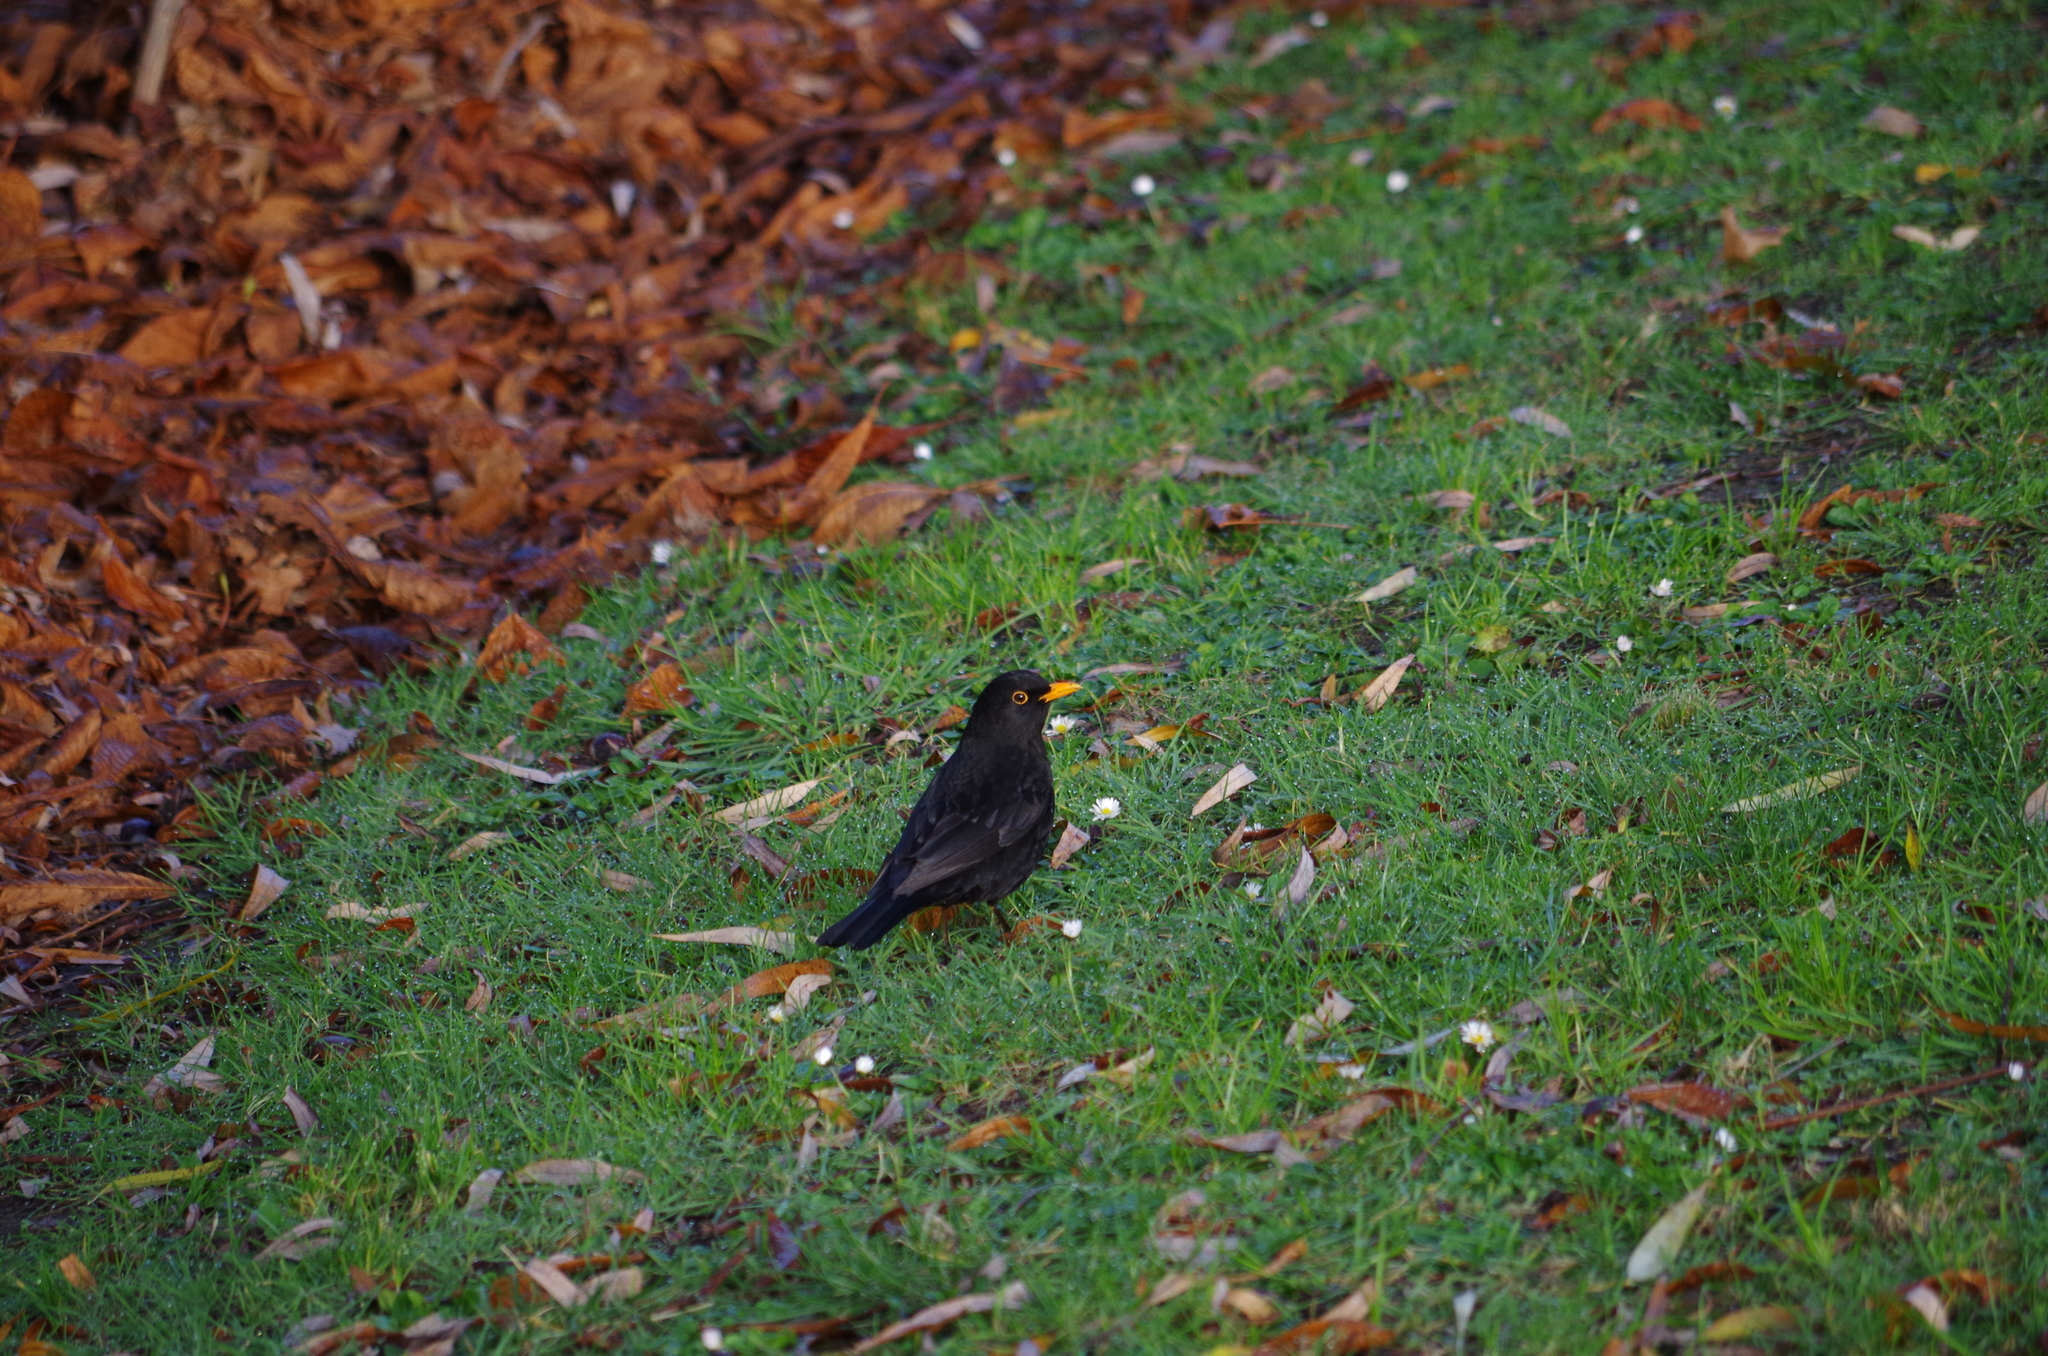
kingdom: Animalia
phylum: Chordata
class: Aves
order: Passeriformes
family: Turdidae
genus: Turdus
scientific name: Turdus merula
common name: Common blackbird
